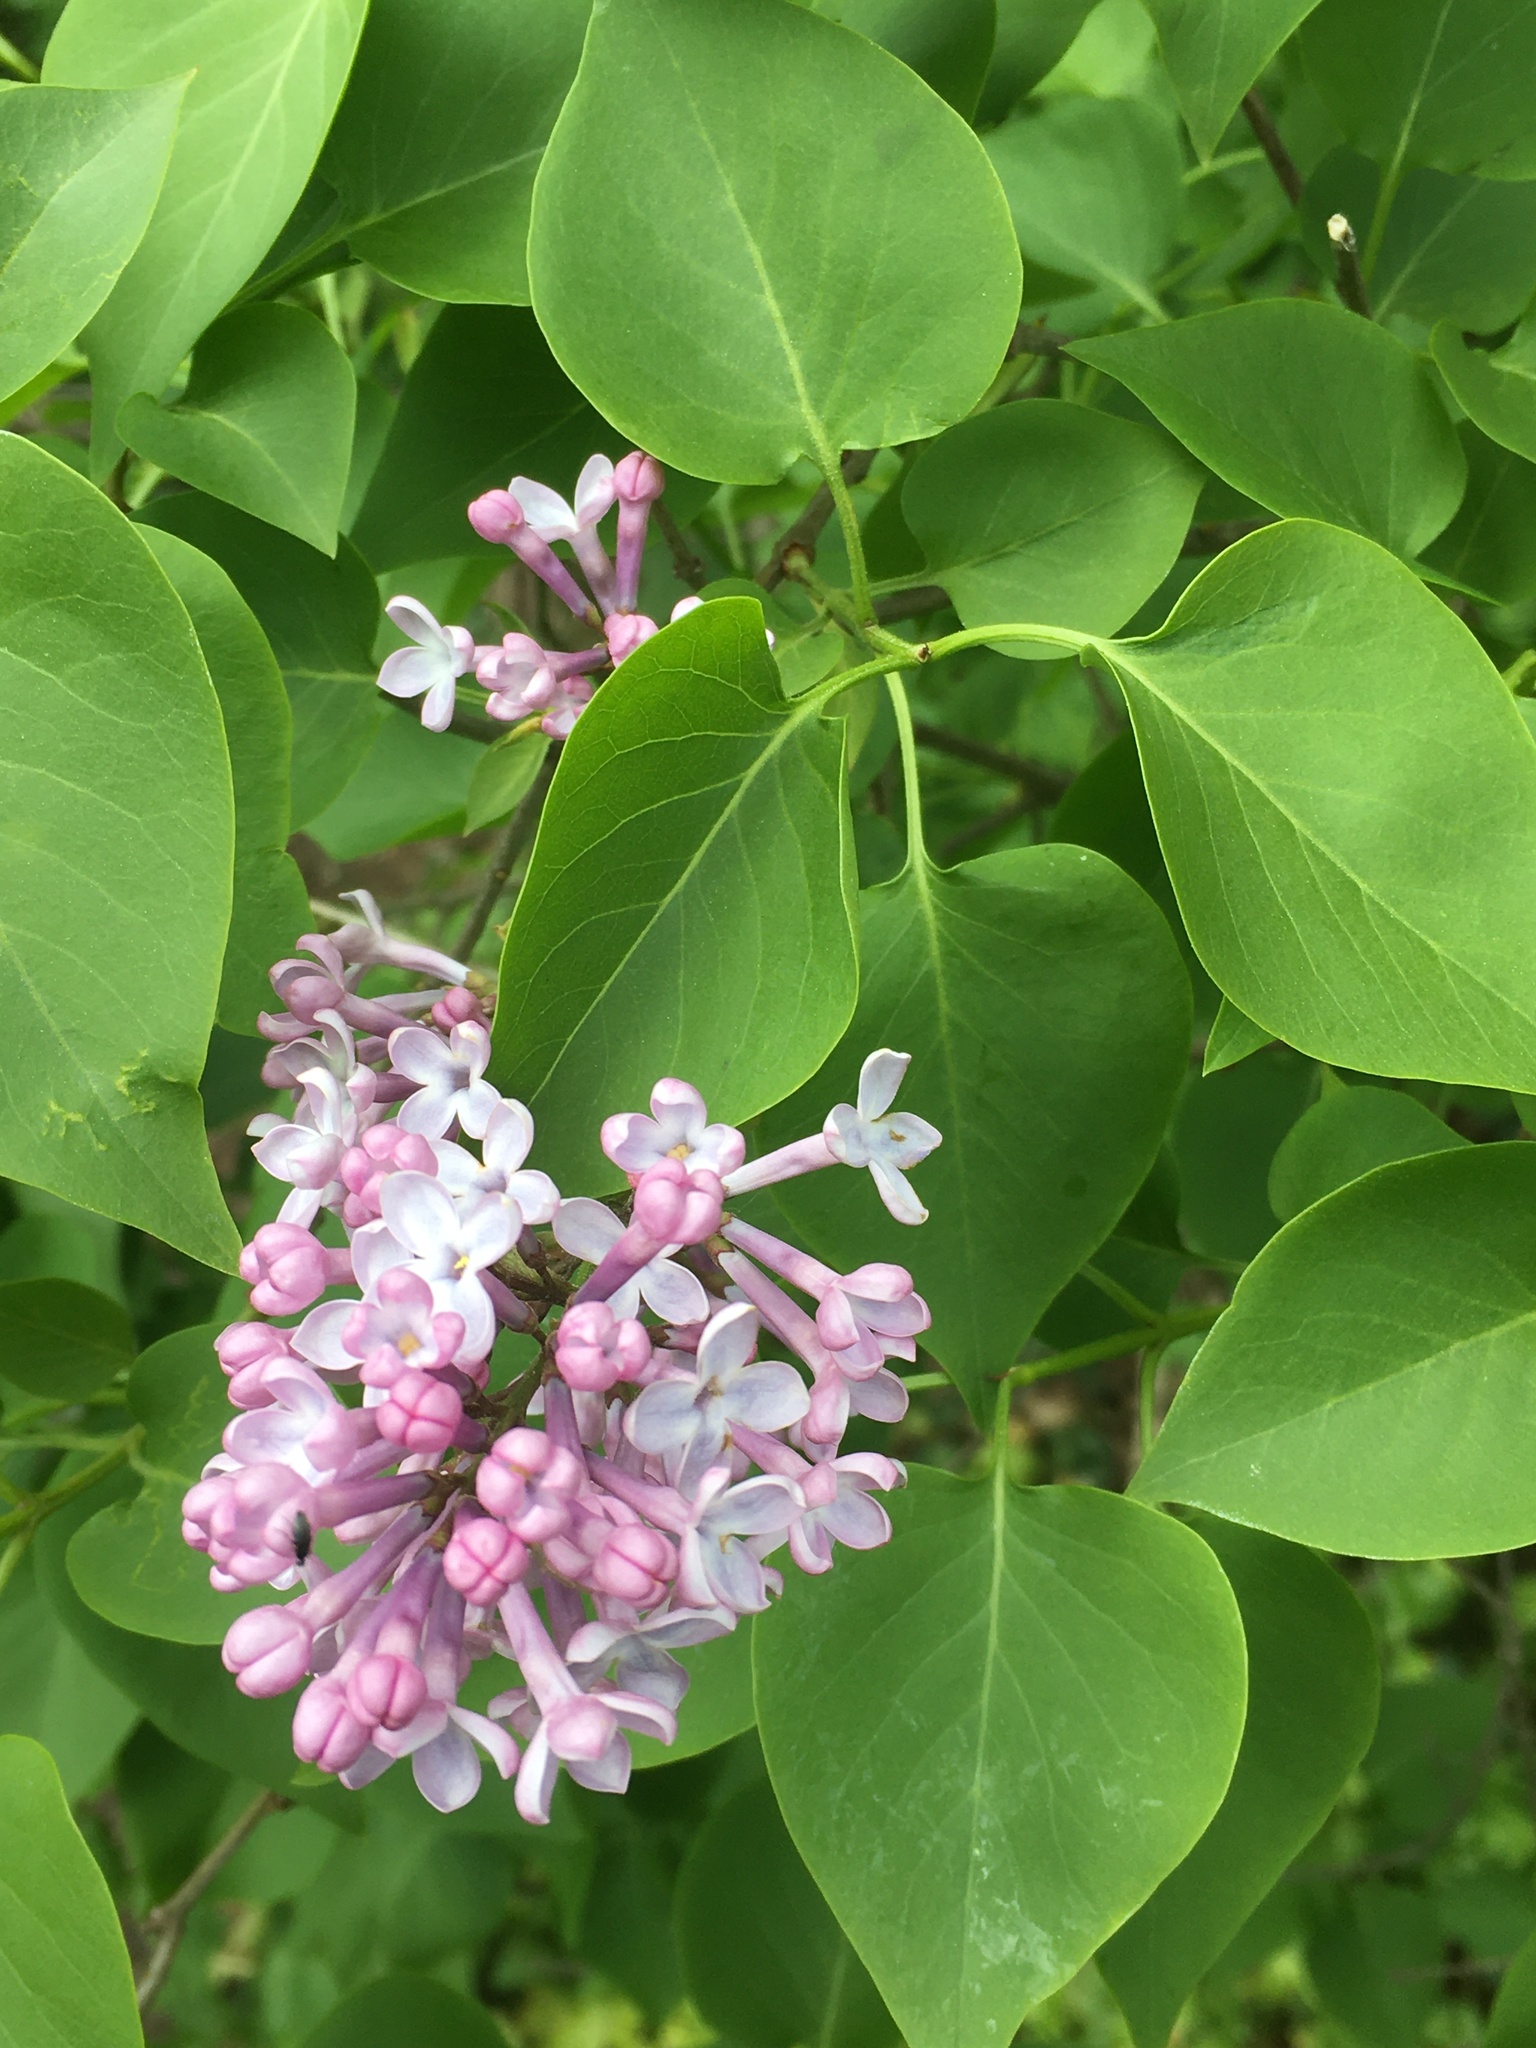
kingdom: Plantae
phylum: Tracheophyta
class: Magnoliopsida
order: Lamiales
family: Oleaceae
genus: Syringa
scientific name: Syringa vulgaris
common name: Common lilac
